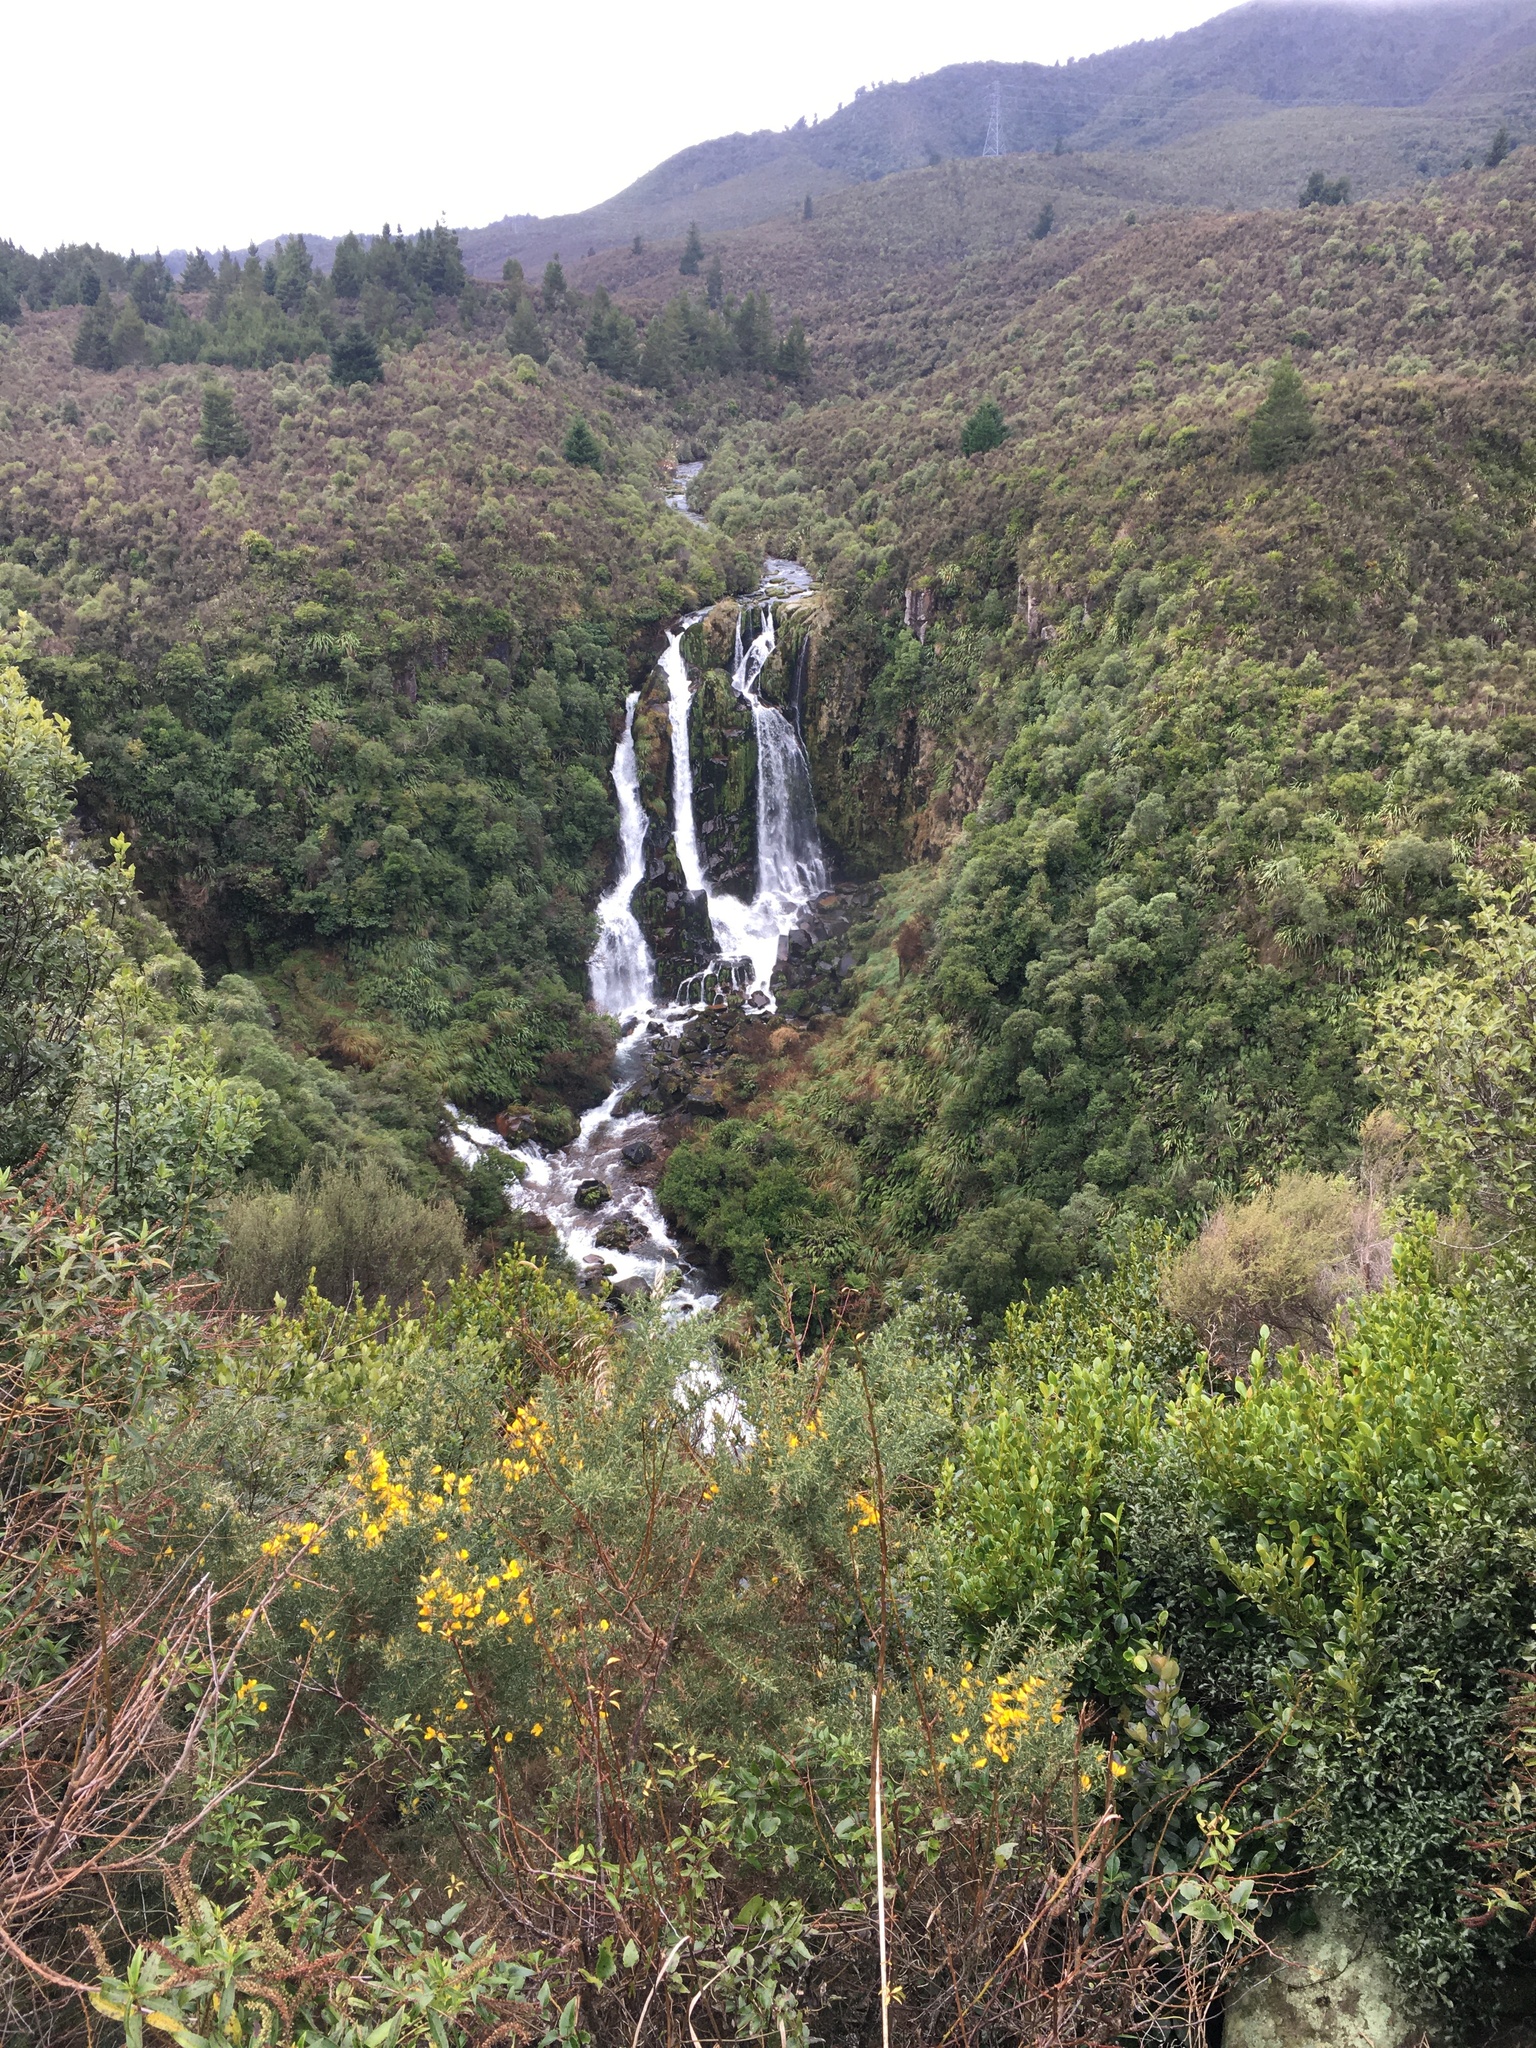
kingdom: Plantae
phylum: Tracheophyta
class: Magnoliopsida
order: Fabales
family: Fabaceae
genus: Ulex
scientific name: Ulex europaeus
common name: Common gorse
